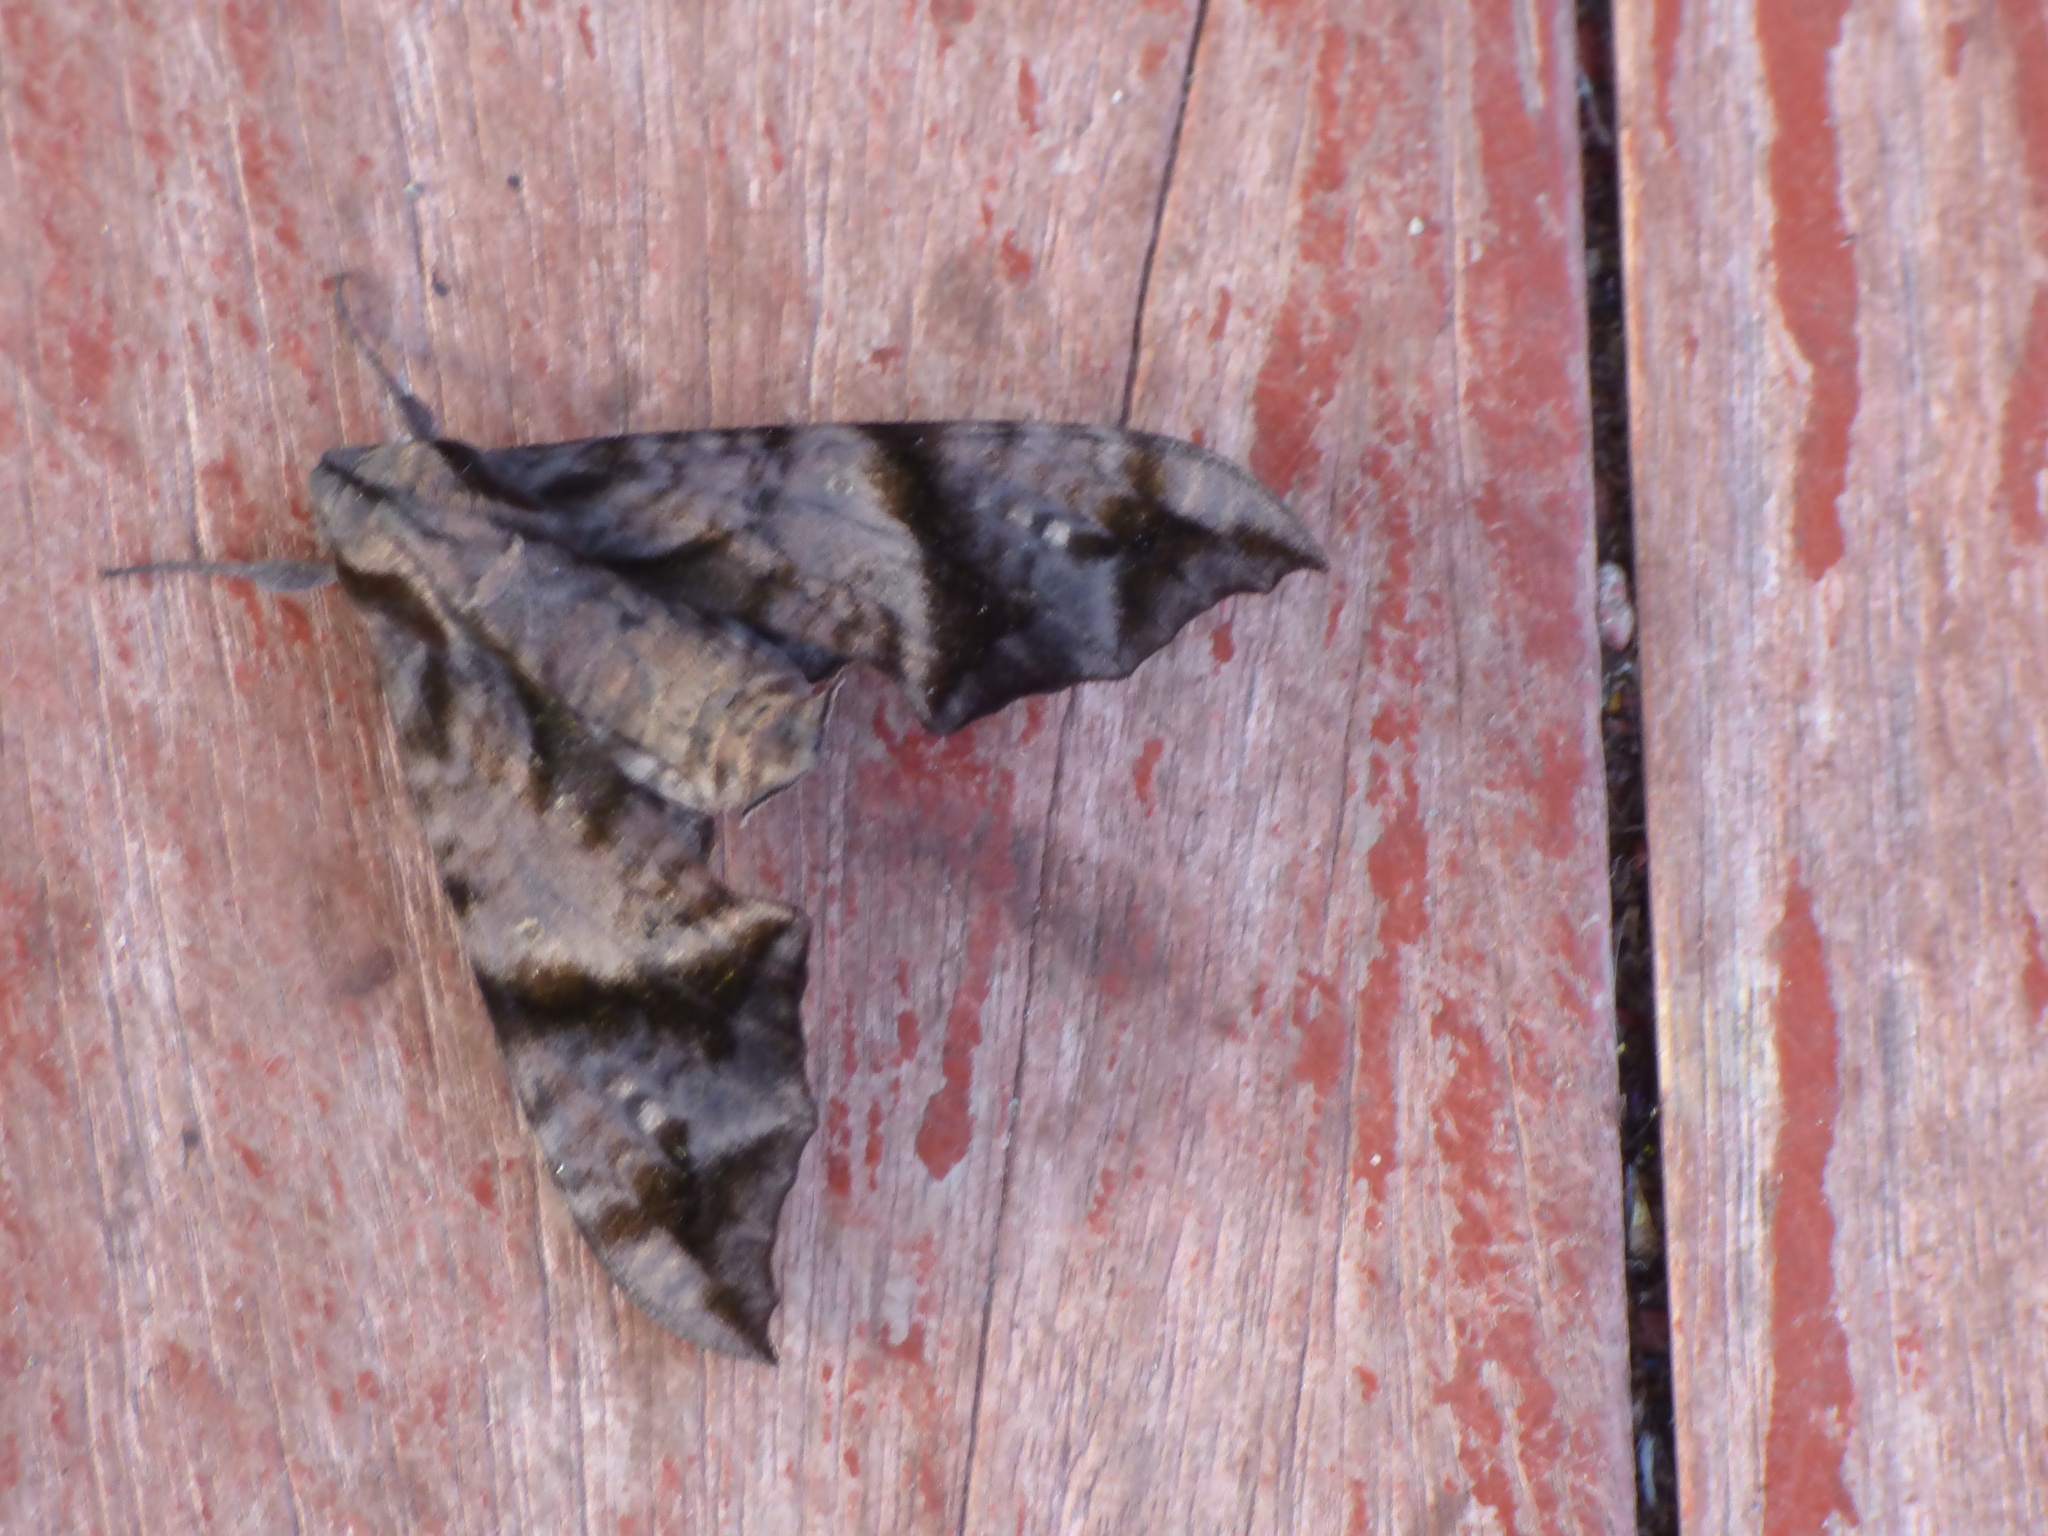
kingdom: Animalia
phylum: Arthropoda
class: Insecta
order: Lepidoptera
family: Sphingidae
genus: Nyceryx
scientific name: Nyceryx hyposticta
